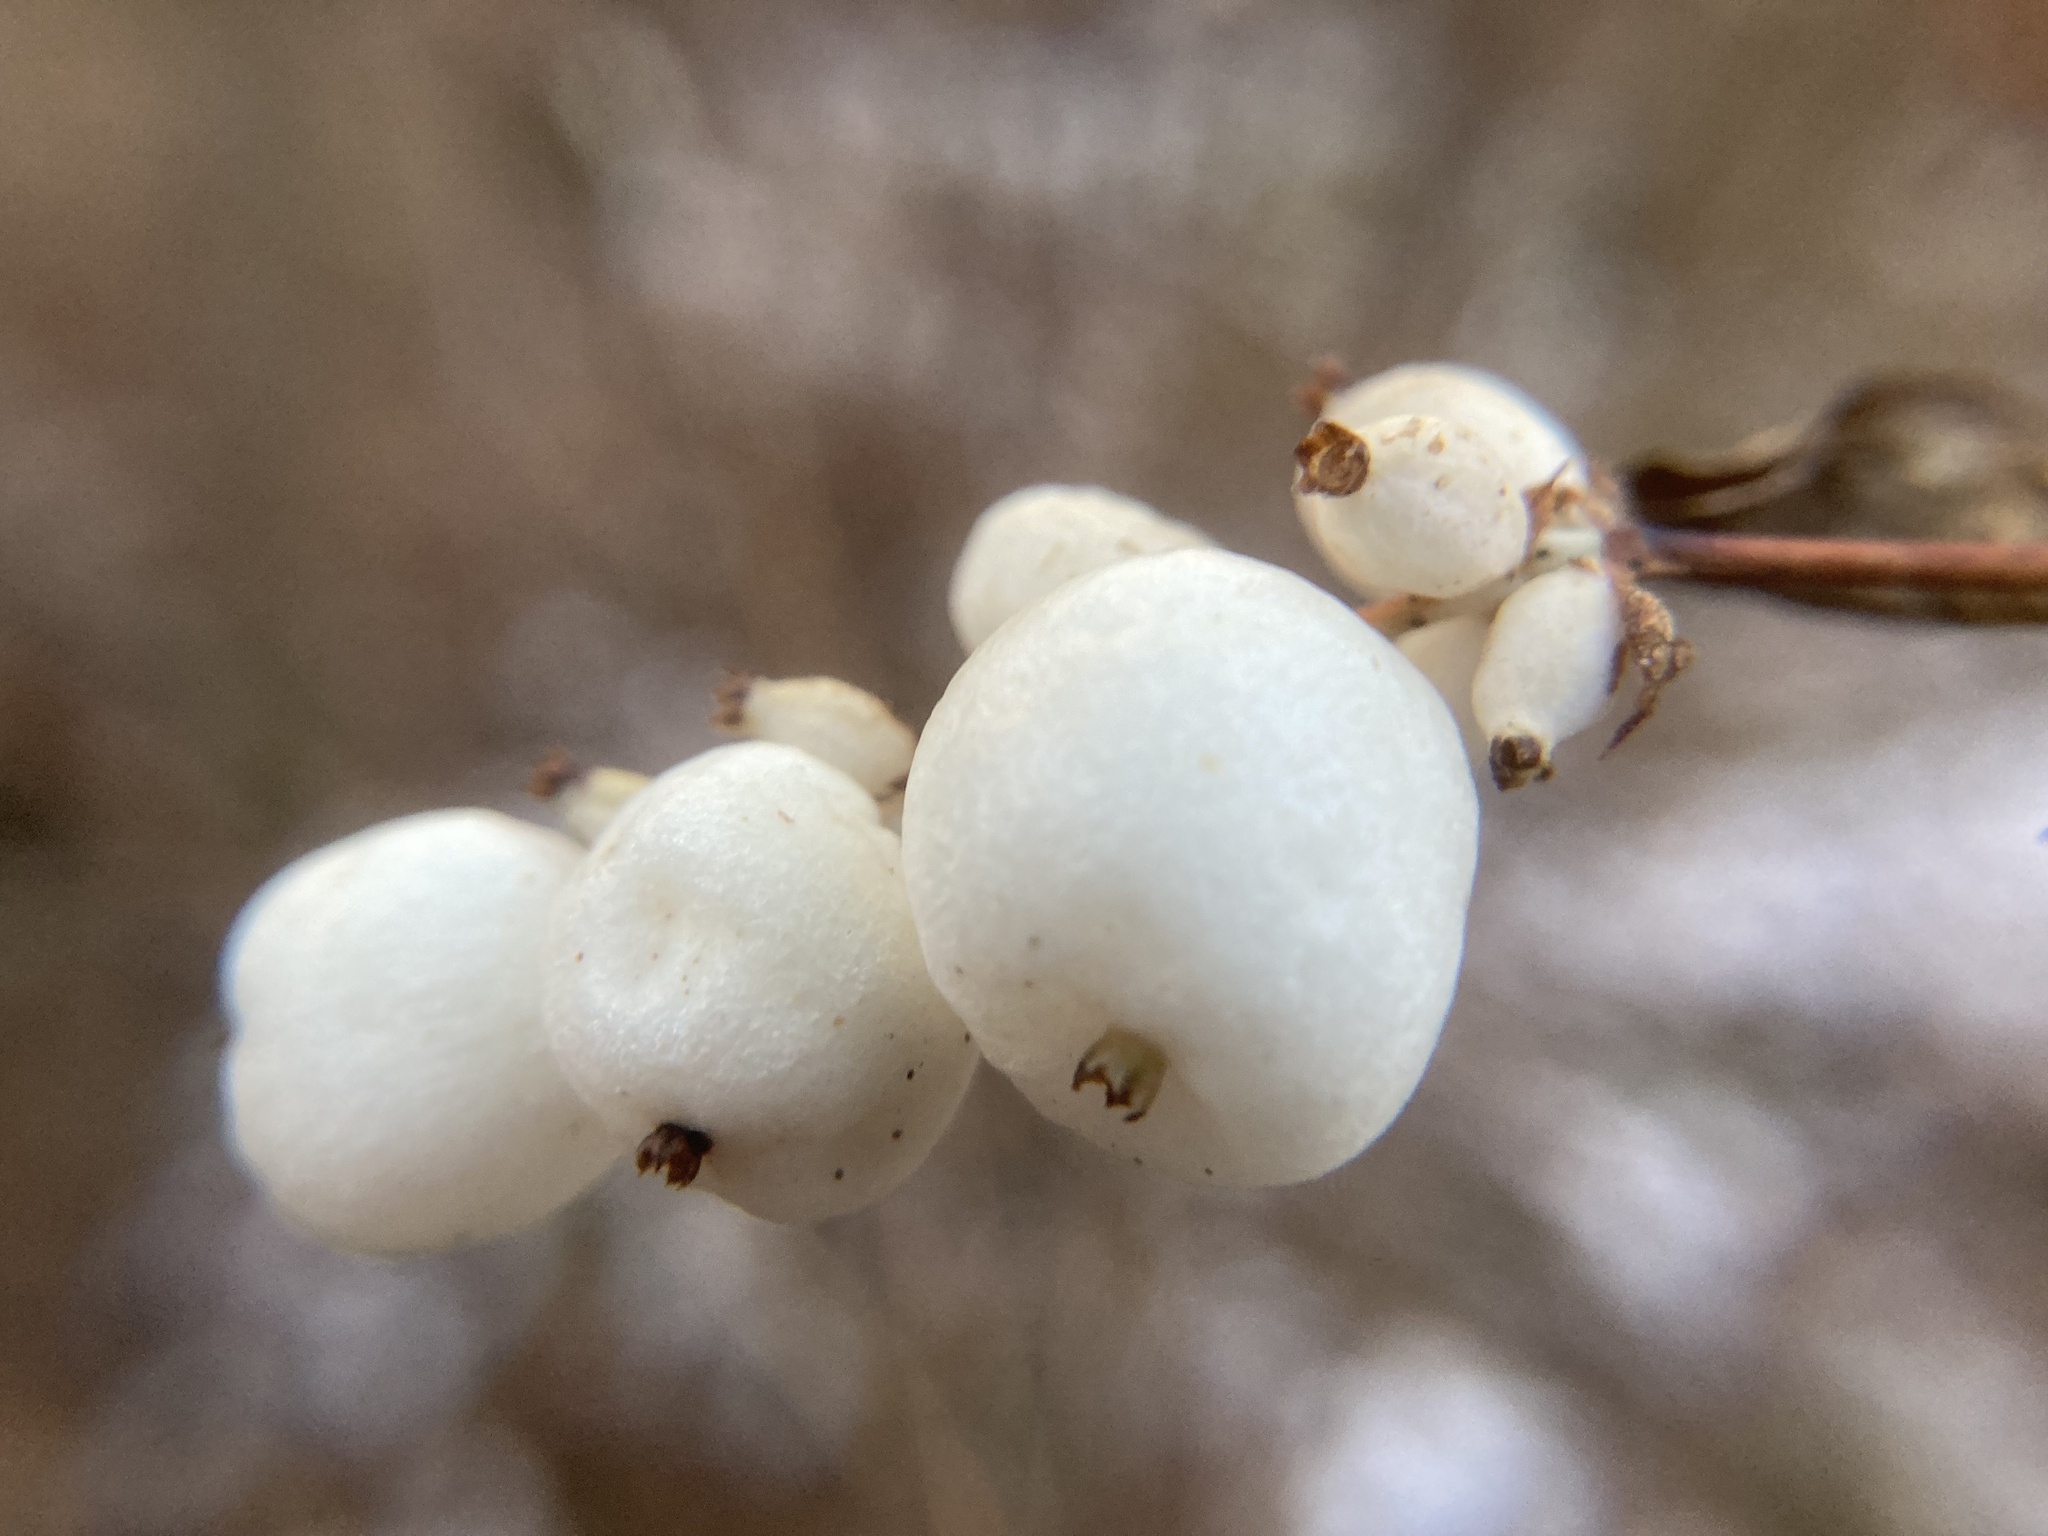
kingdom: Plantae
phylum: Tracheophyta
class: Magnoliopsida
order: Dipsacales
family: Caprifoliaceae
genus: Symphoricarpos
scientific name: Symphoricarpos albus
